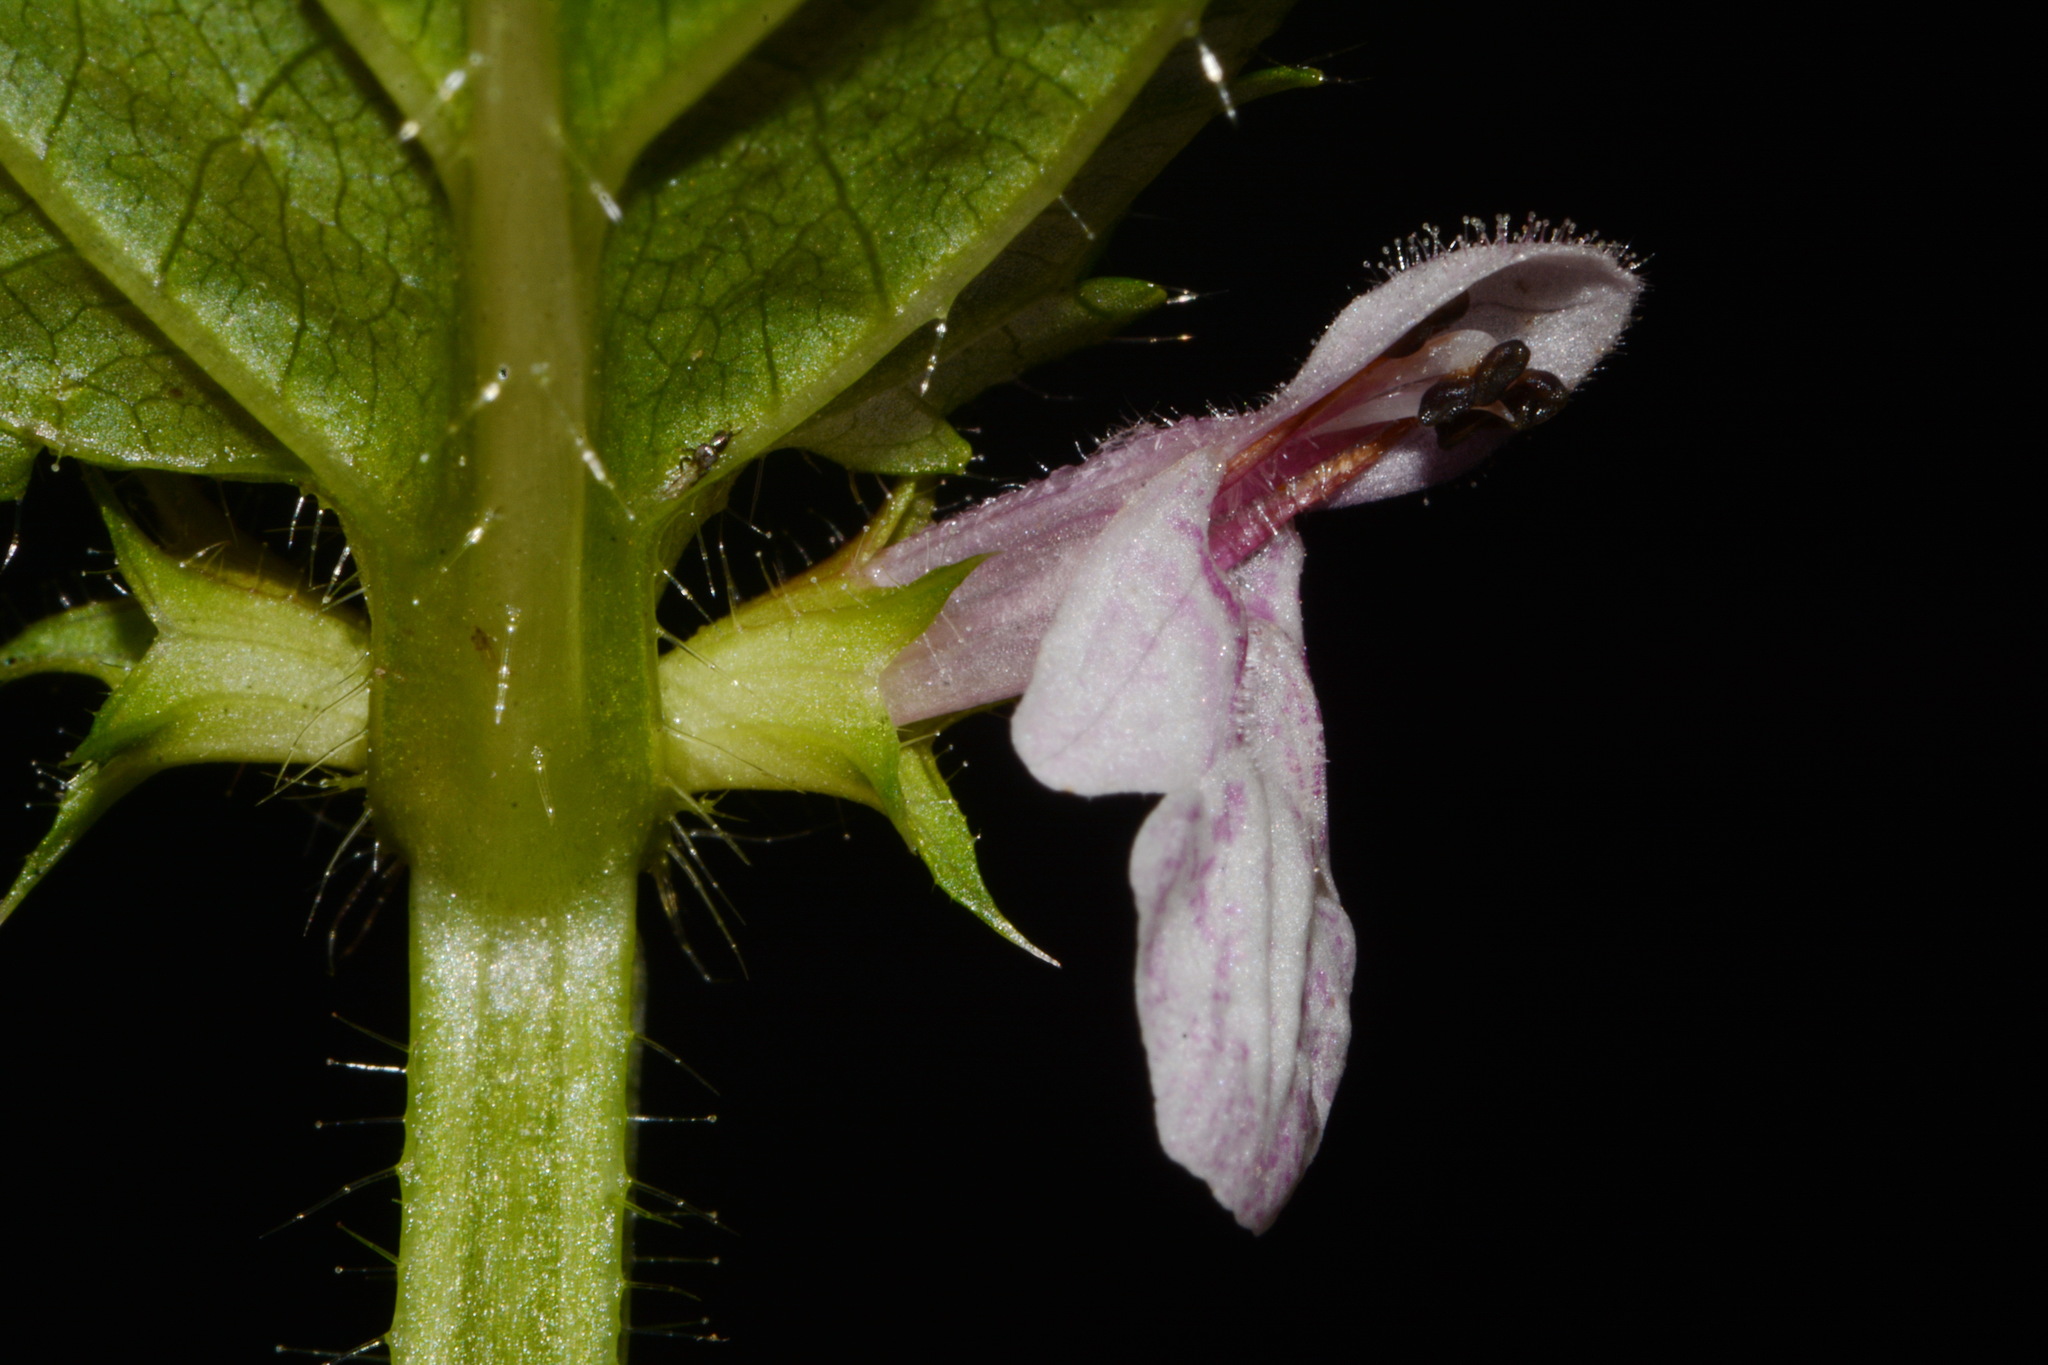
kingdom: Plantae
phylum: Tracheophyta
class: Magnoliopsida
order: Lamiales
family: Lamiaceae
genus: Stachys
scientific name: Stachys appalachiana
